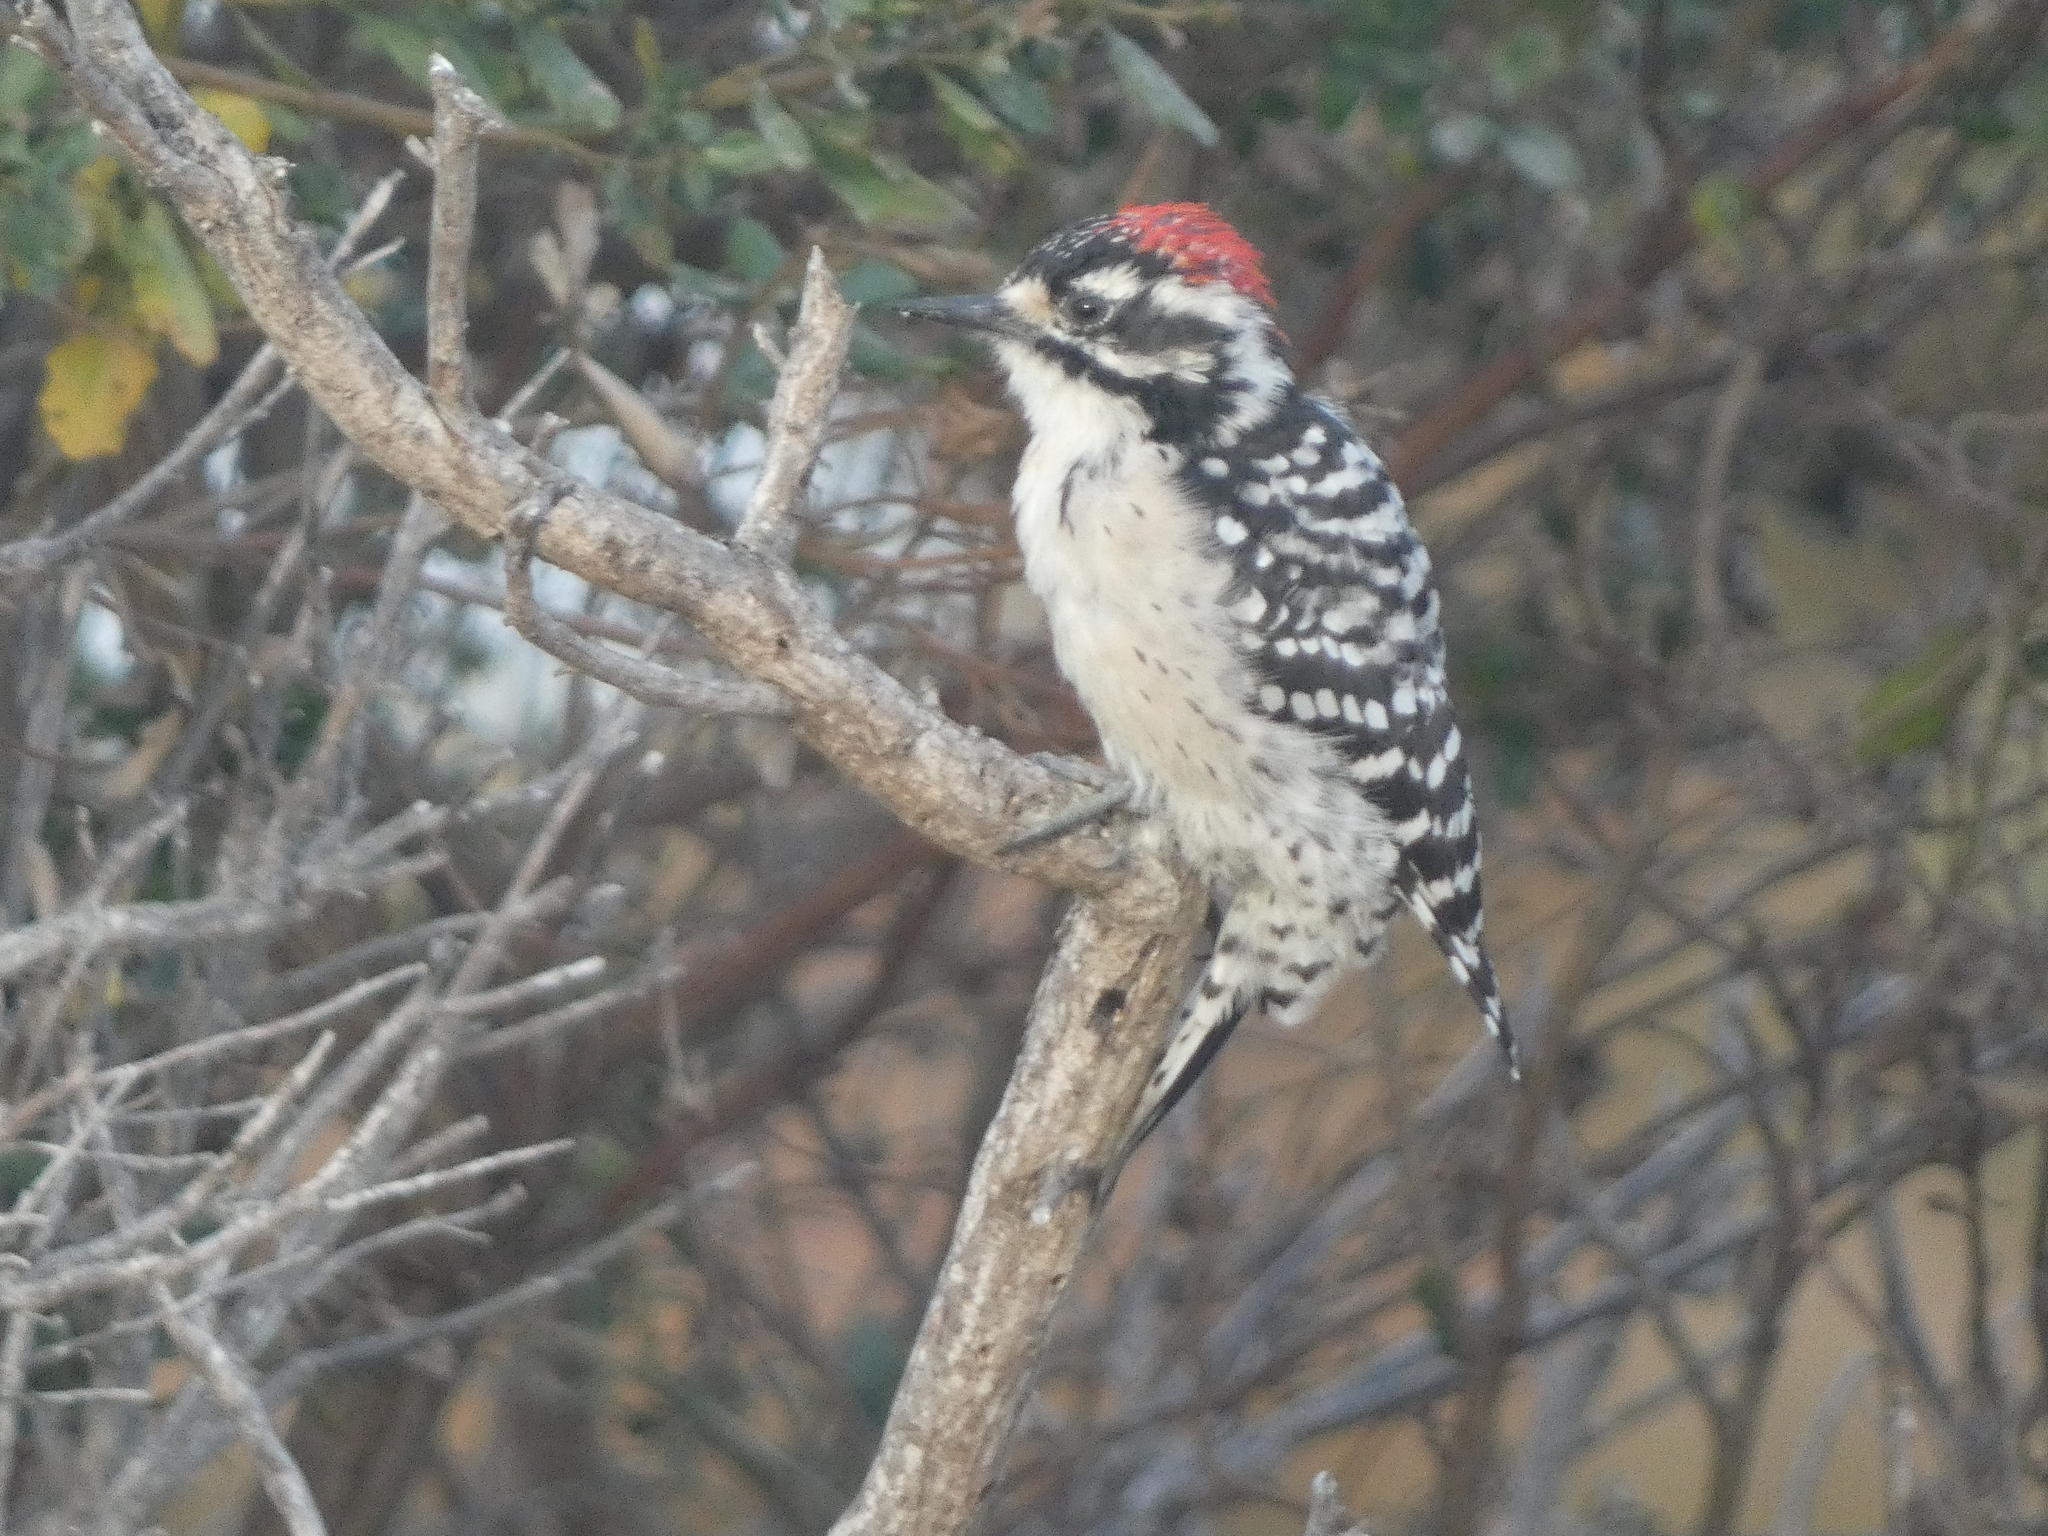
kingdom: Animalia
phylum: Chordata
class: Aves
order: Piciformes
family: Picidae
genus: Dryobates
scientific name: Dryobates nuttallii
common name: Nuttall's woodpecker
